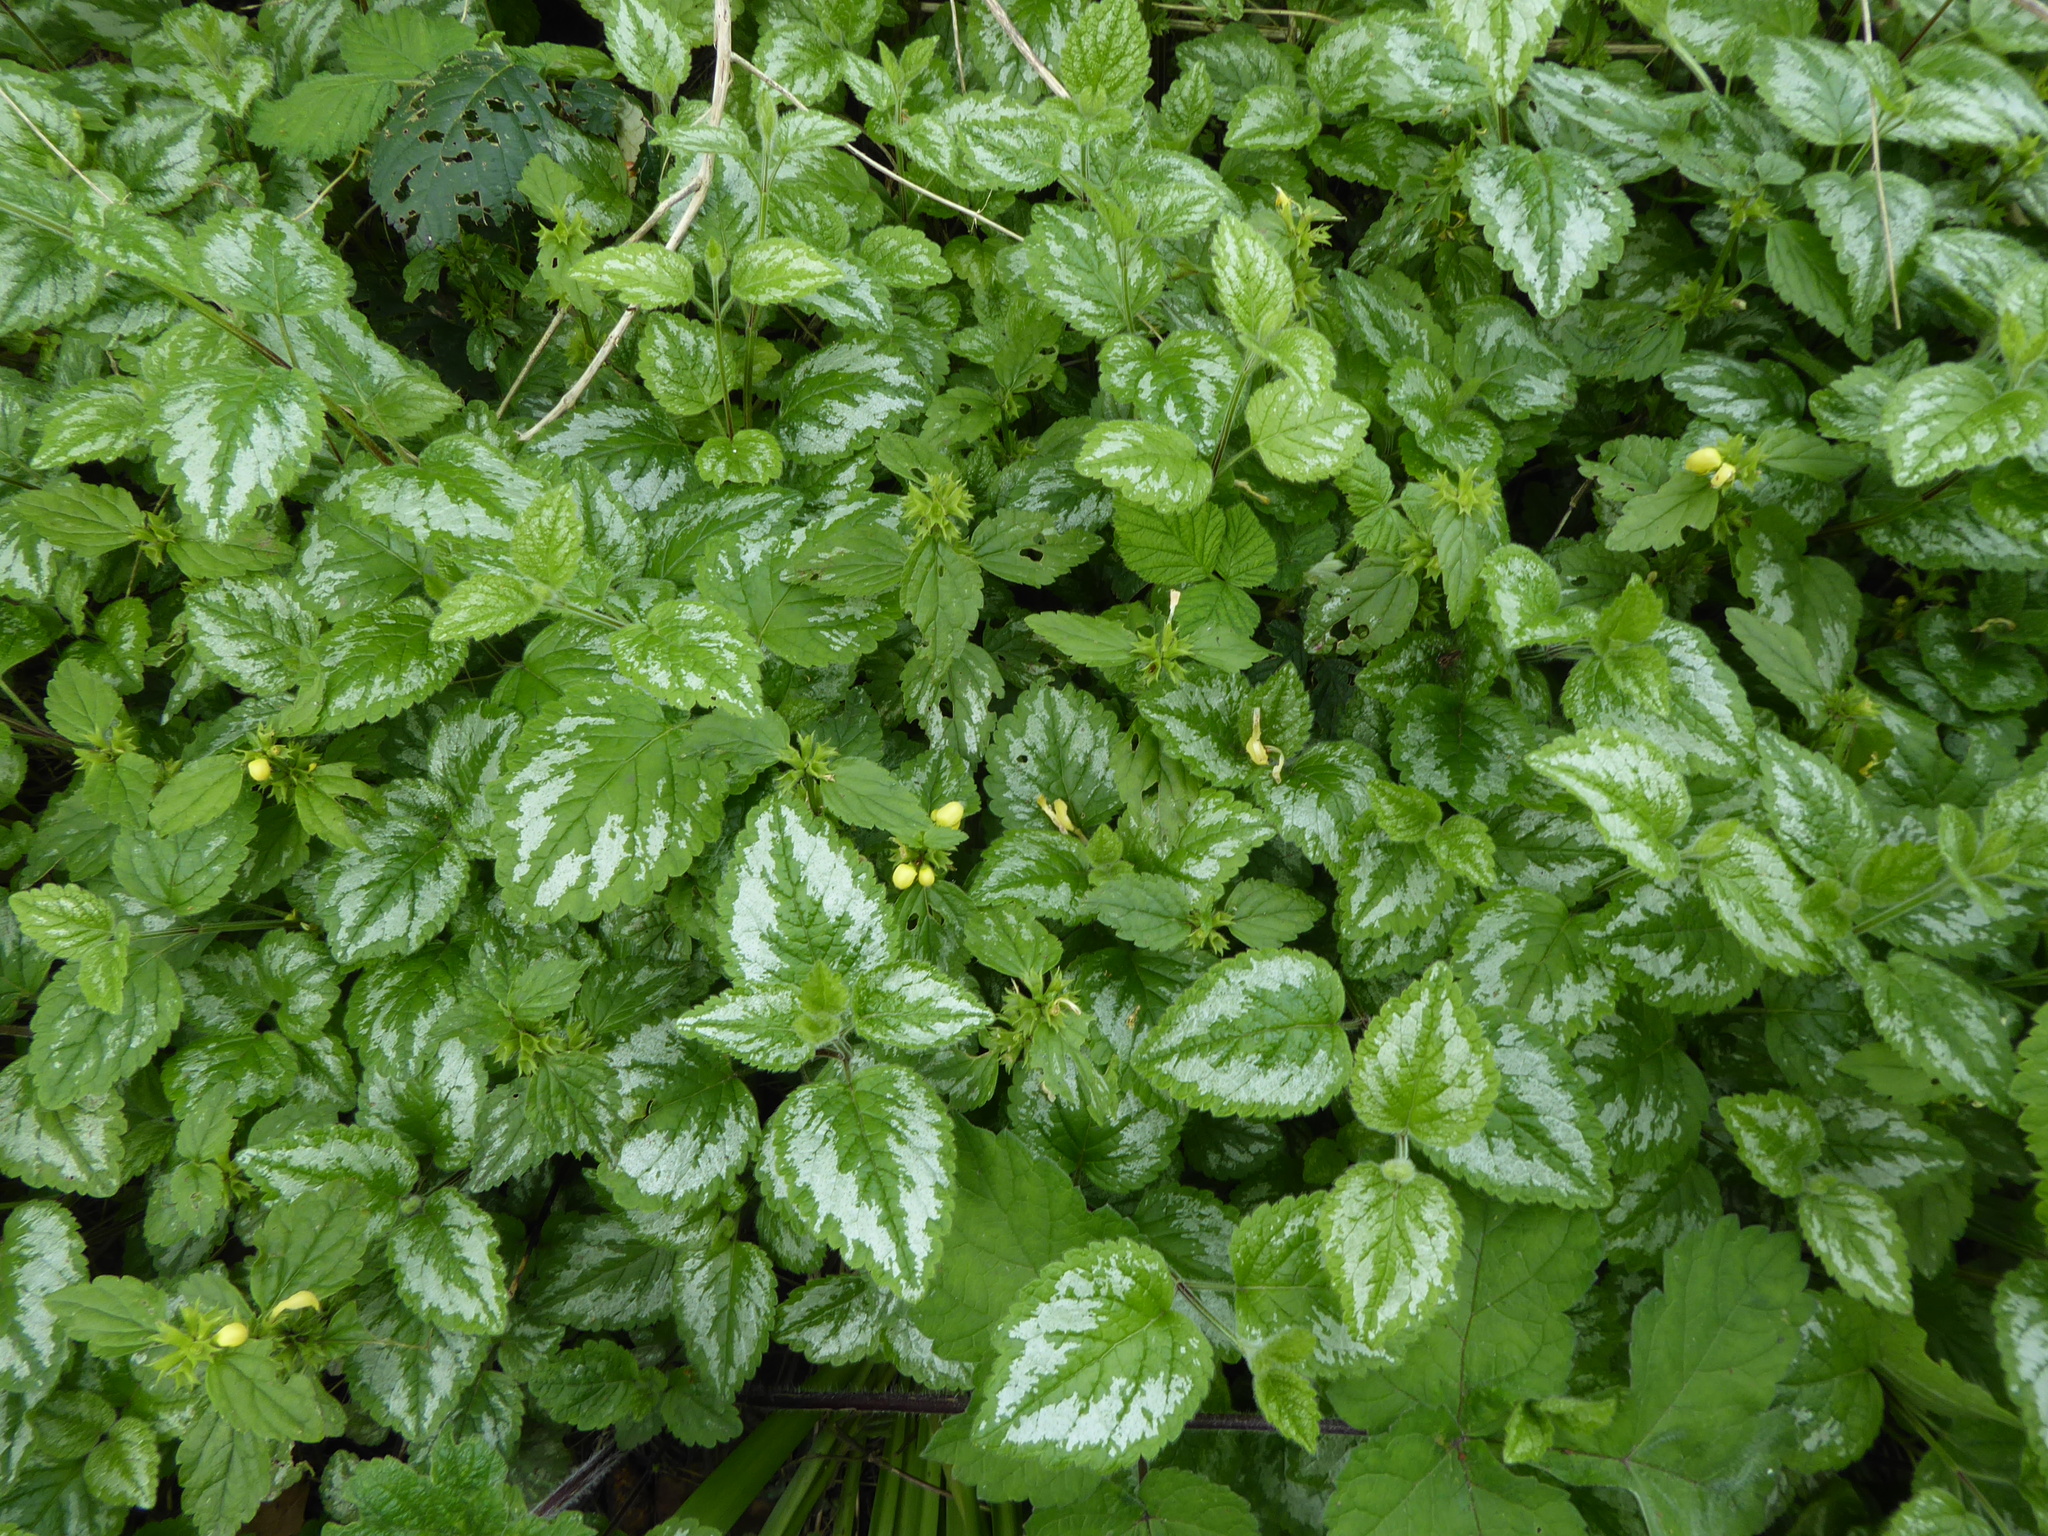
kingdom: Plantae
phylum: Tracheophyta
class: Magnoliopsida
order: Lamiales
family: Lamiaceae
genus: Lamium
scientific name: Lamium galeobdolon
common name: Yellow archangel
